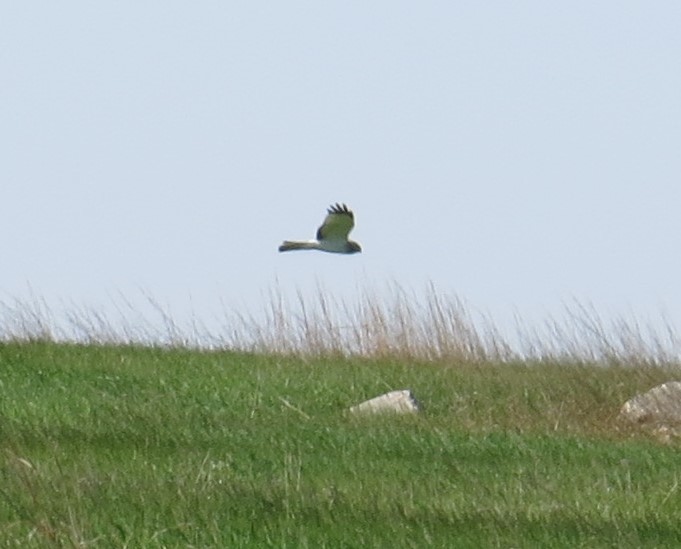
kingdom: Animalia
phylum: Chordata
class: Aves
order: Accipitriformes
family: Accipitridae
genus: Circus
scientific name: Circus cyaneus
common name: Hen harrier
